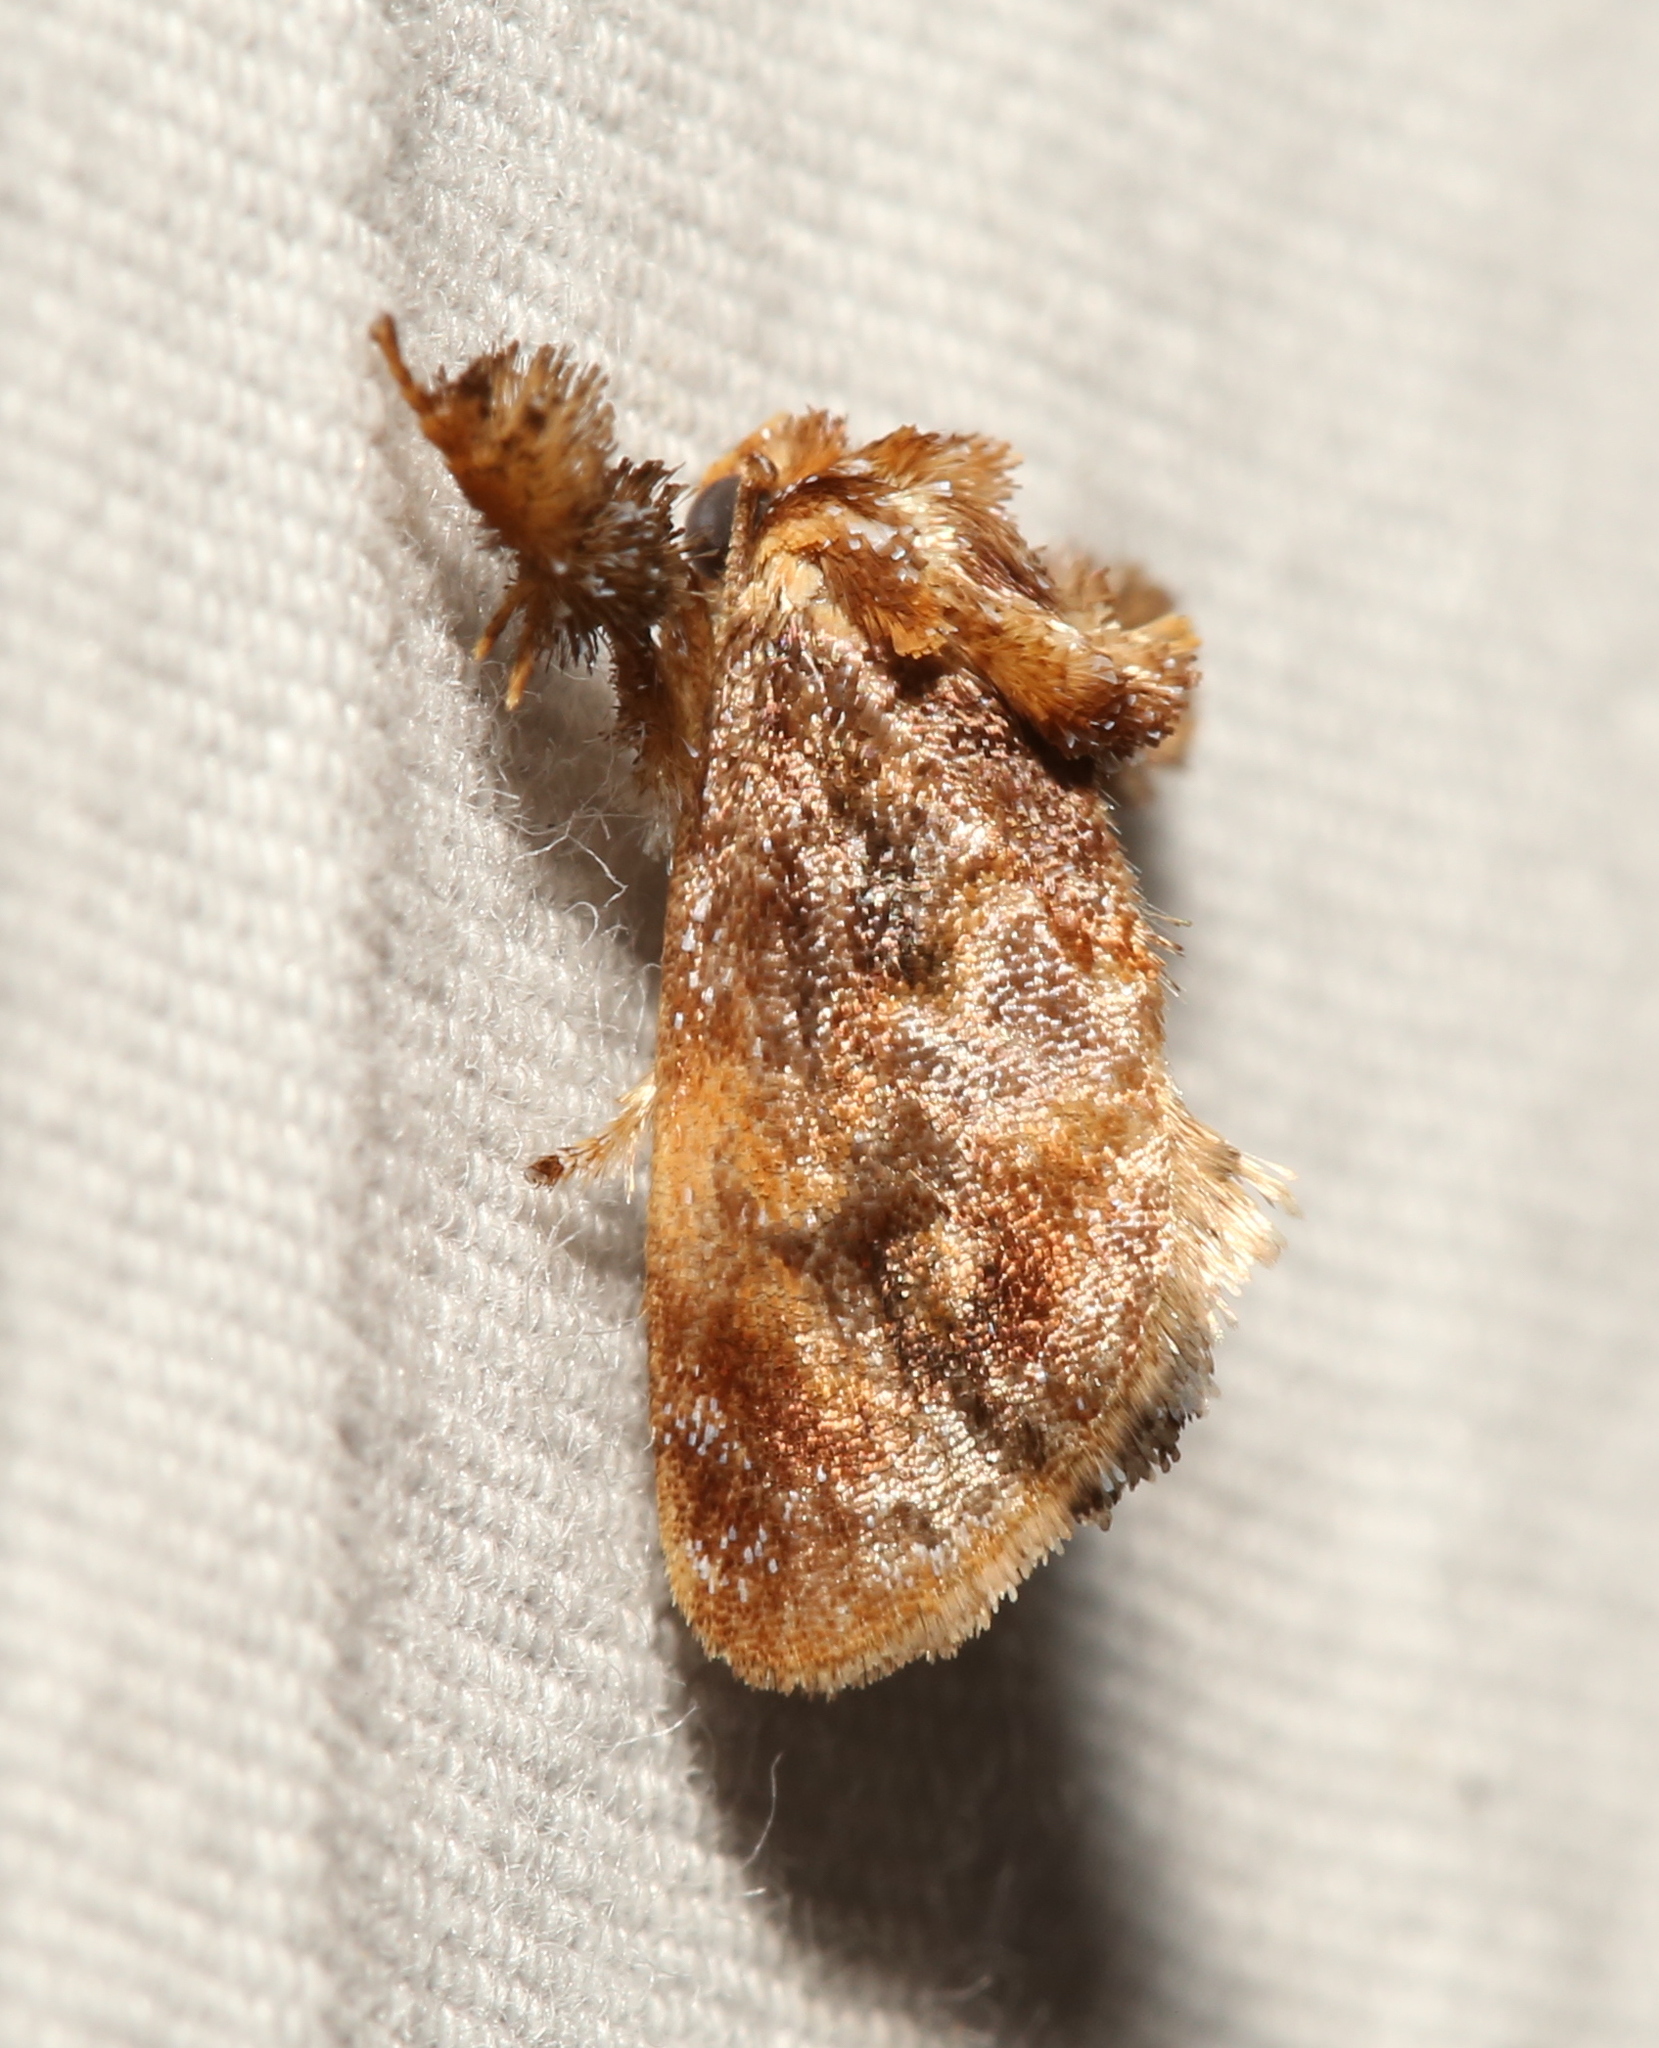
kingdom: Animalia
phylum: Arthropoda
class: Insecta
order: Lepidoptera
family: Limacodidae
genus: Isochaetes
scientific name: Isochaetes beutenmuelleri
